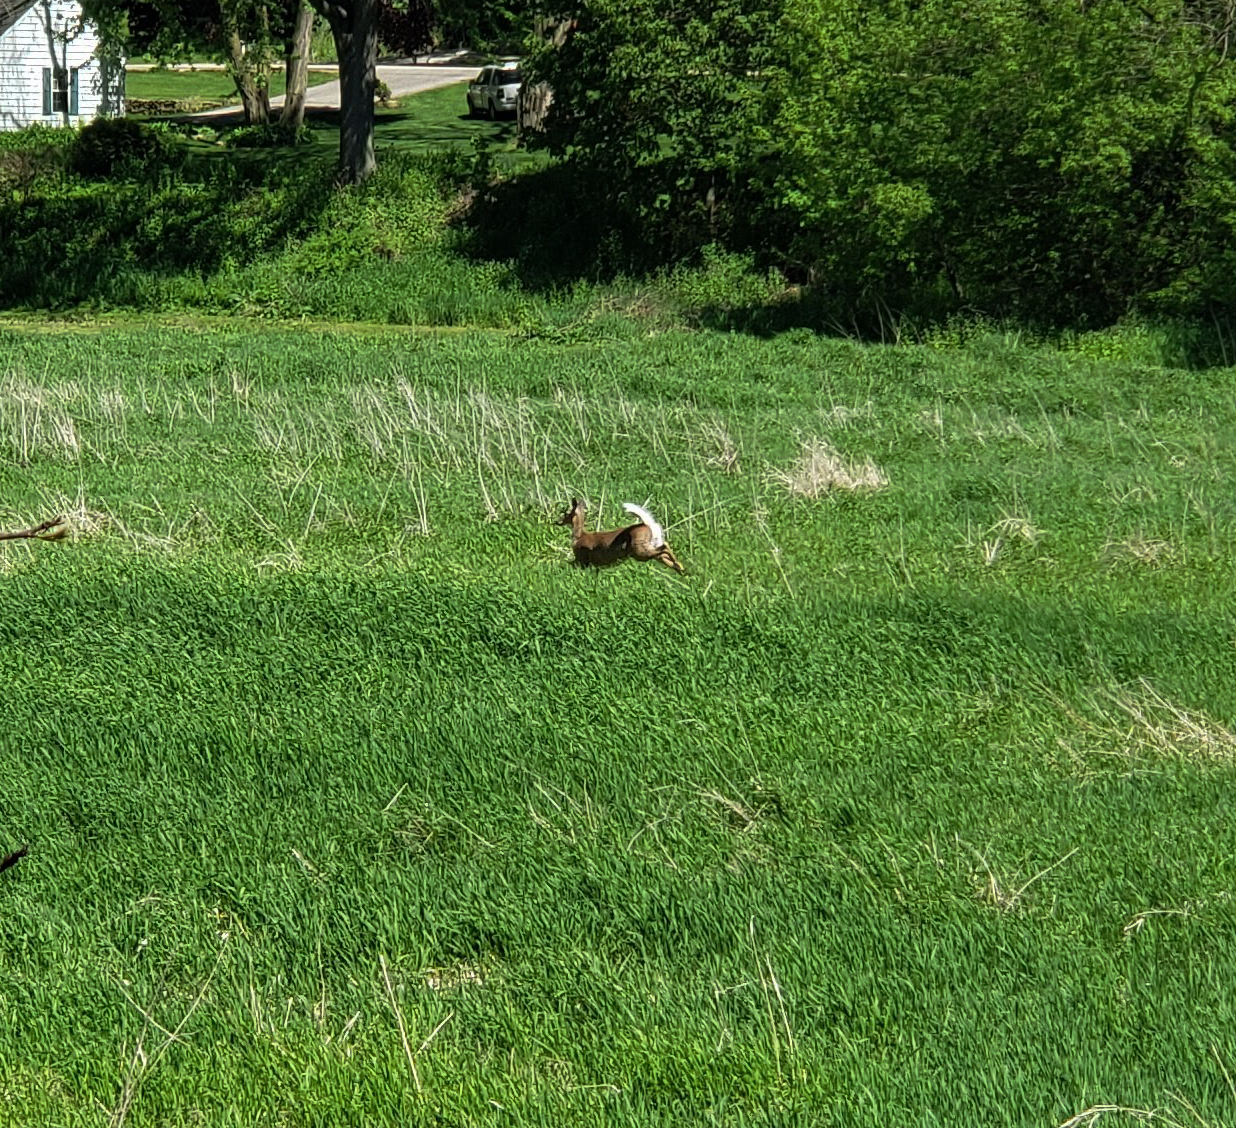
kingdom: Animalia
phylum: Chordata
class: Mammalia
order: Artiodactyla
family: Cervidae
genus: Odocoileus
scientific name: Odocoileus virginianus
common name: White-tailed deer
